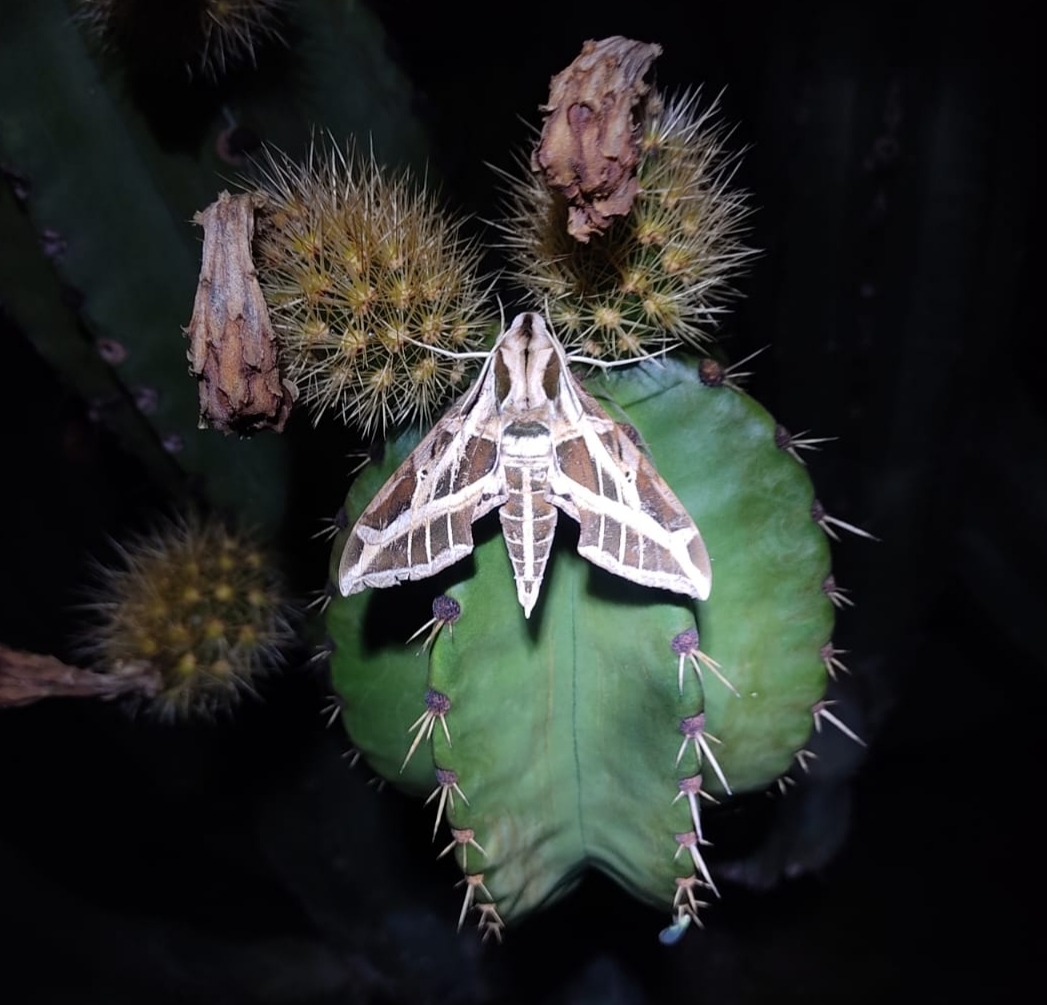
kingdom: Animalia
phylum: Arthropoda
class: Insecta
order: Lepidoptera
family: Sphingidae
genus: Eumorpha
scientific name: Eumorpha vitis
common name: Vine sphinx
